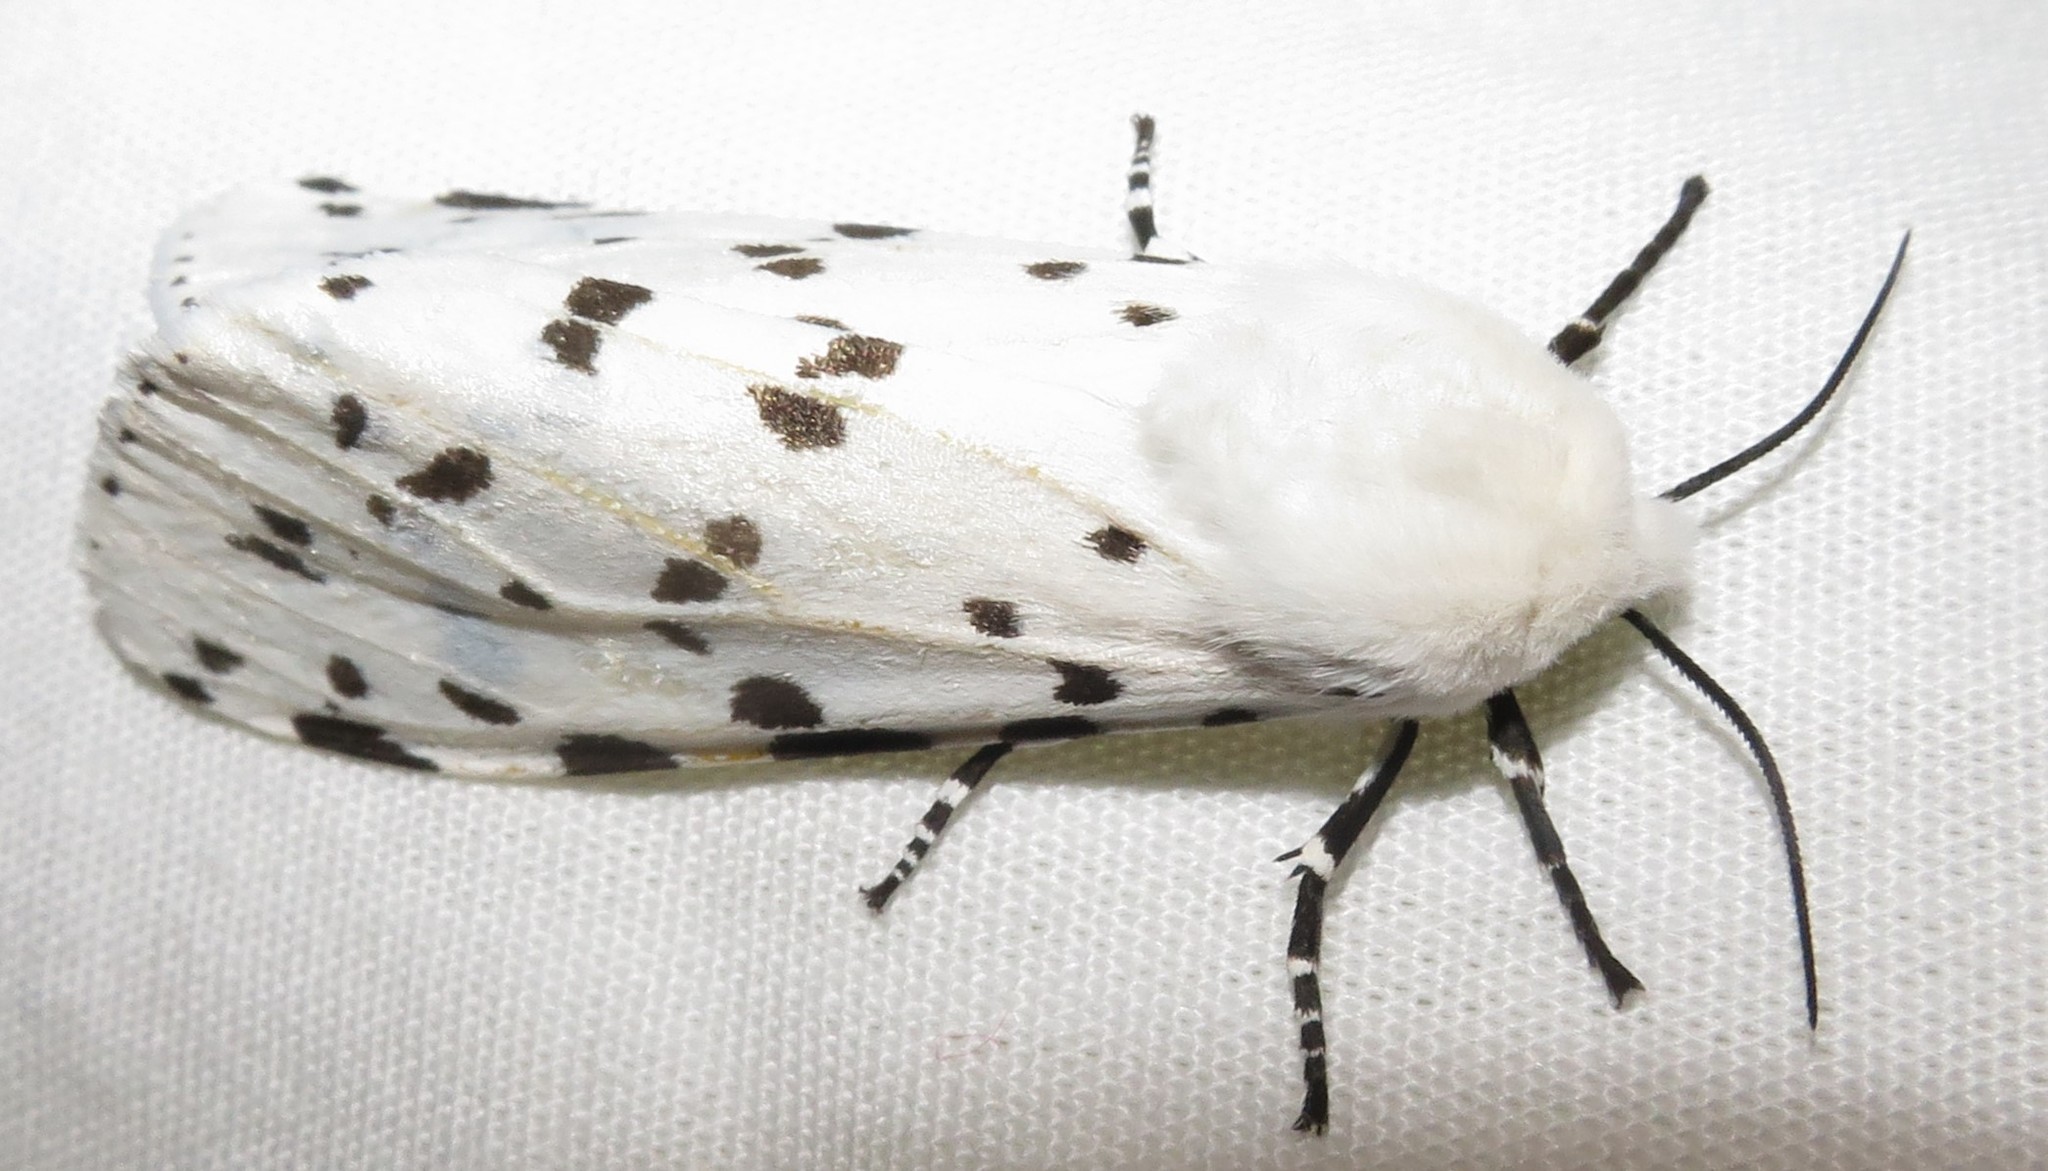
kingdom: Animalia
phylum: Arthropoda
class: Insecta
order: Lepidoptera
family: Erebidae
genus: Estigmene
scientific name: Estigmene
